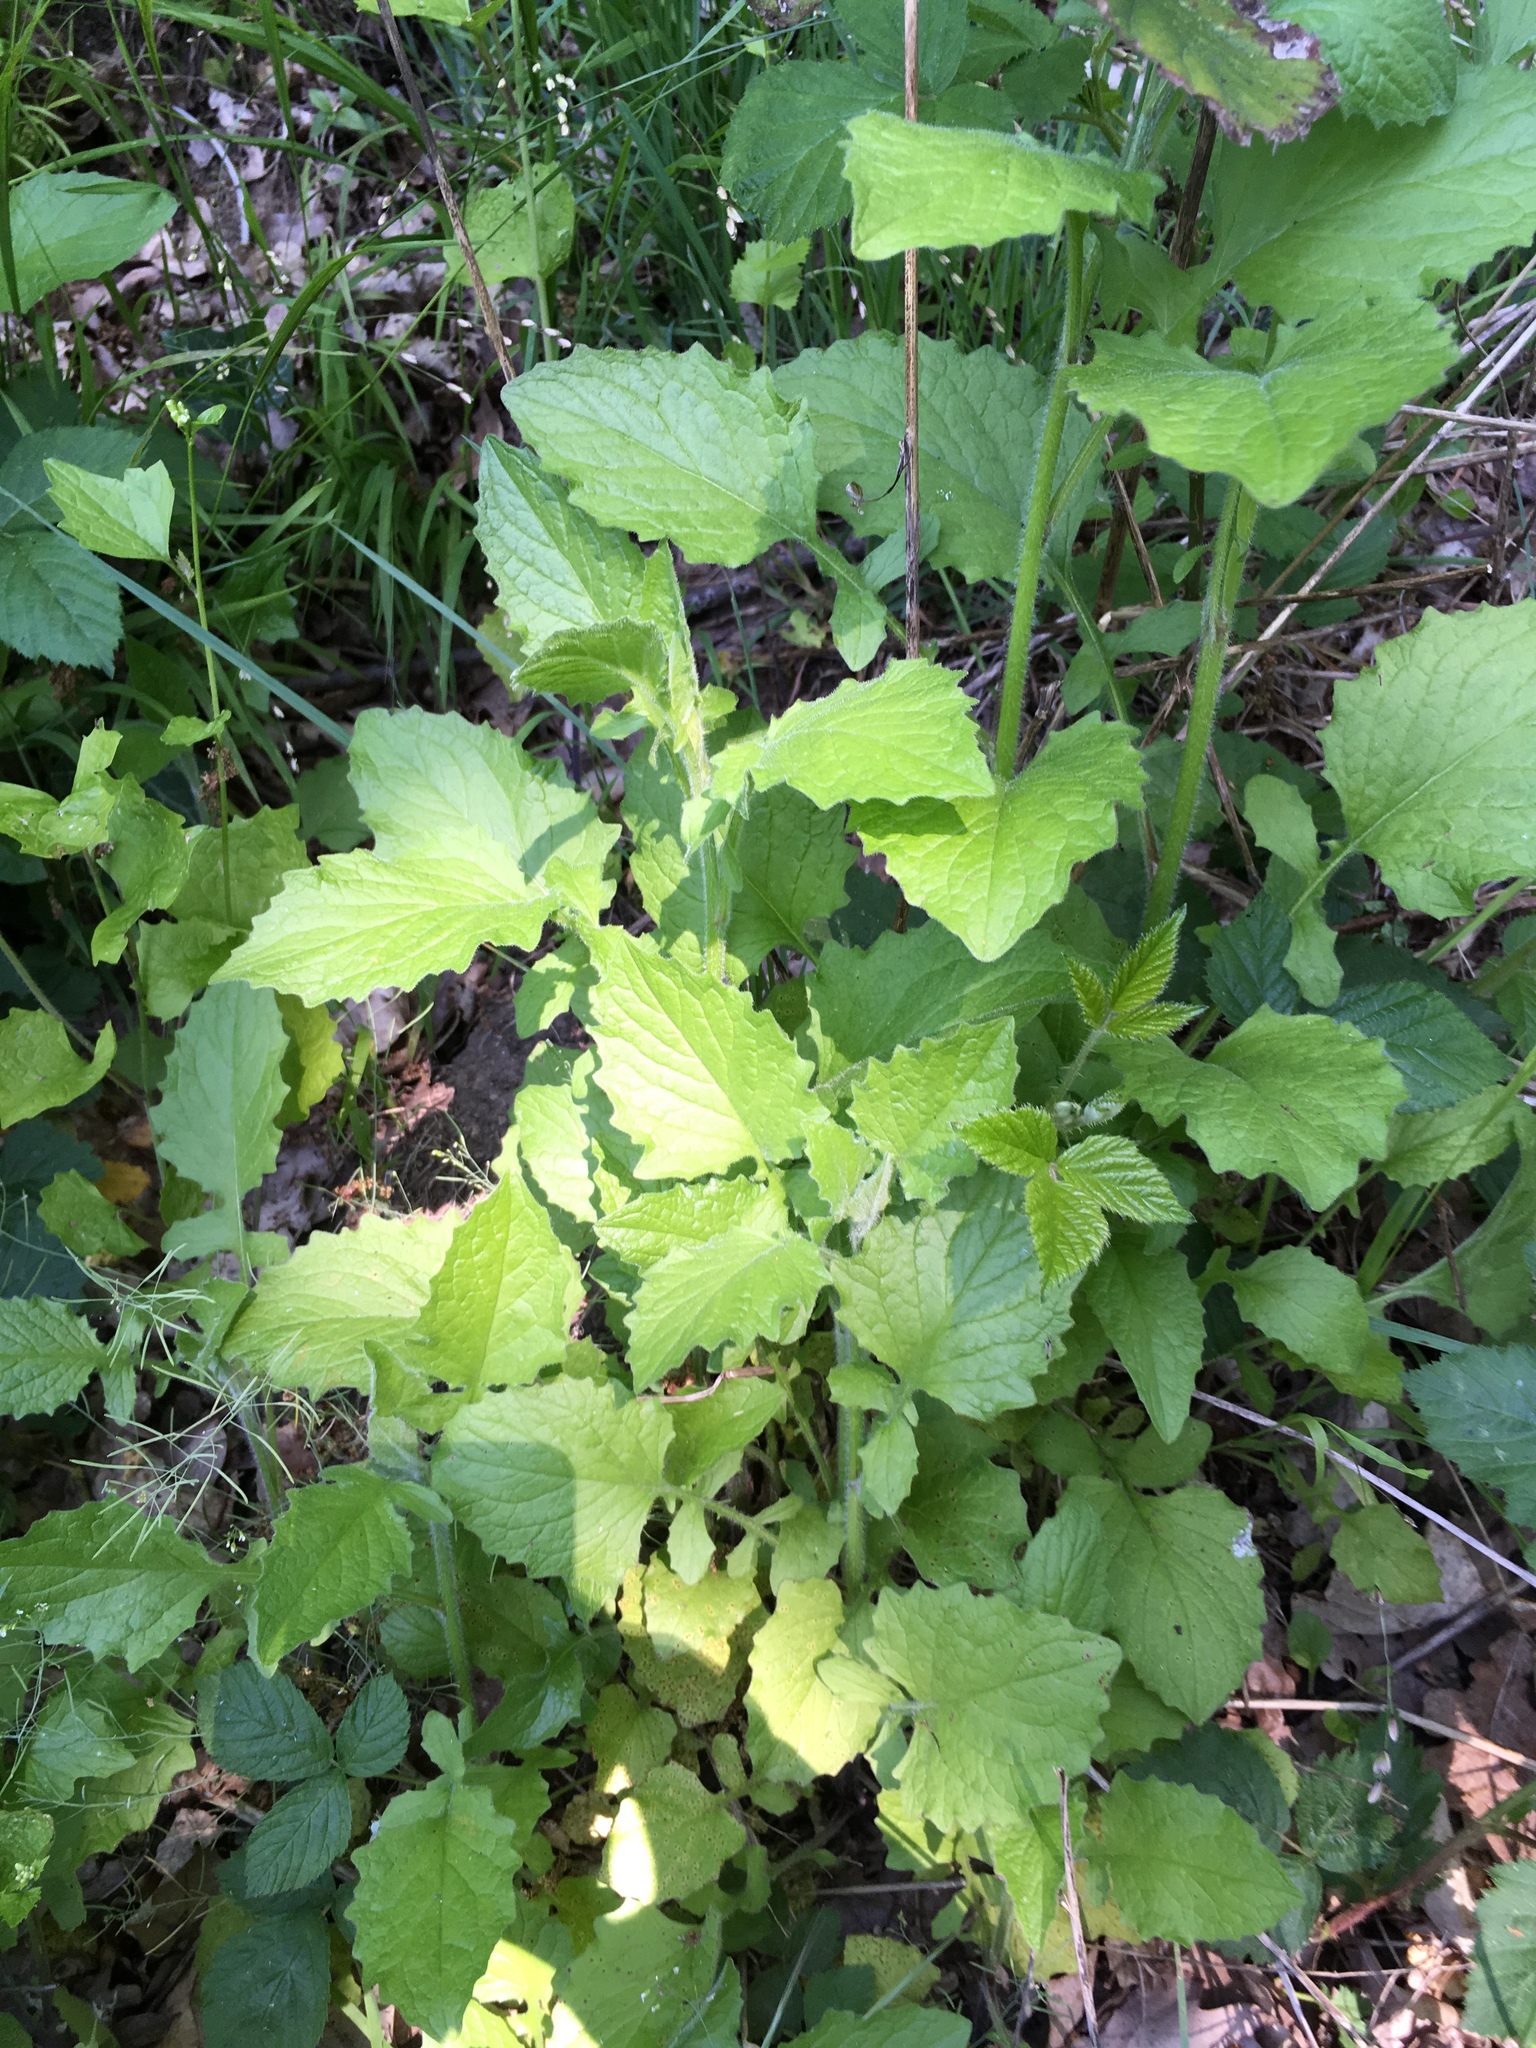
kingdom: Plantae
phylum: Tracheophyta
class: Magnoliopsida
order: Asterales
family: Asteraceae
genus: Lapsana
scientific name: Lapsana communis
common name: Nipplewort
